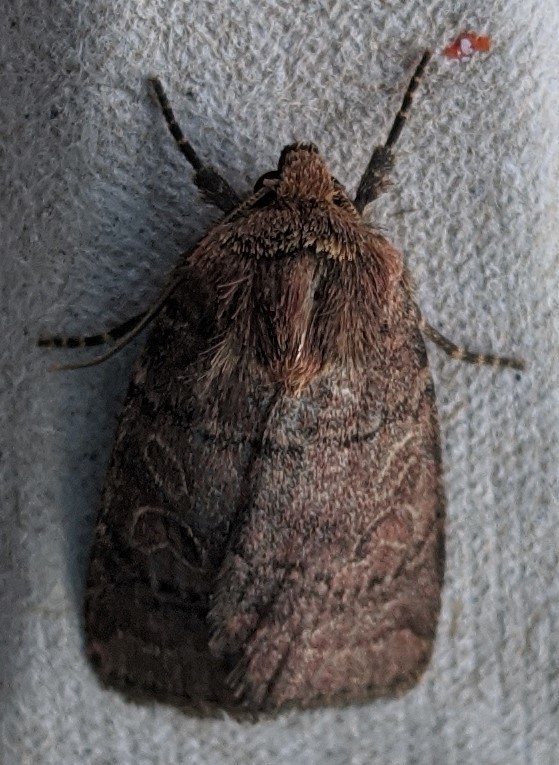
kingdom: Animalia
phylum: Arthropoda
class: Insecta
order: Lepidoptera
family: Noctuidae
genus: Orthodes
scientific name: Orthodes cynica
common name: Cynical quaker
